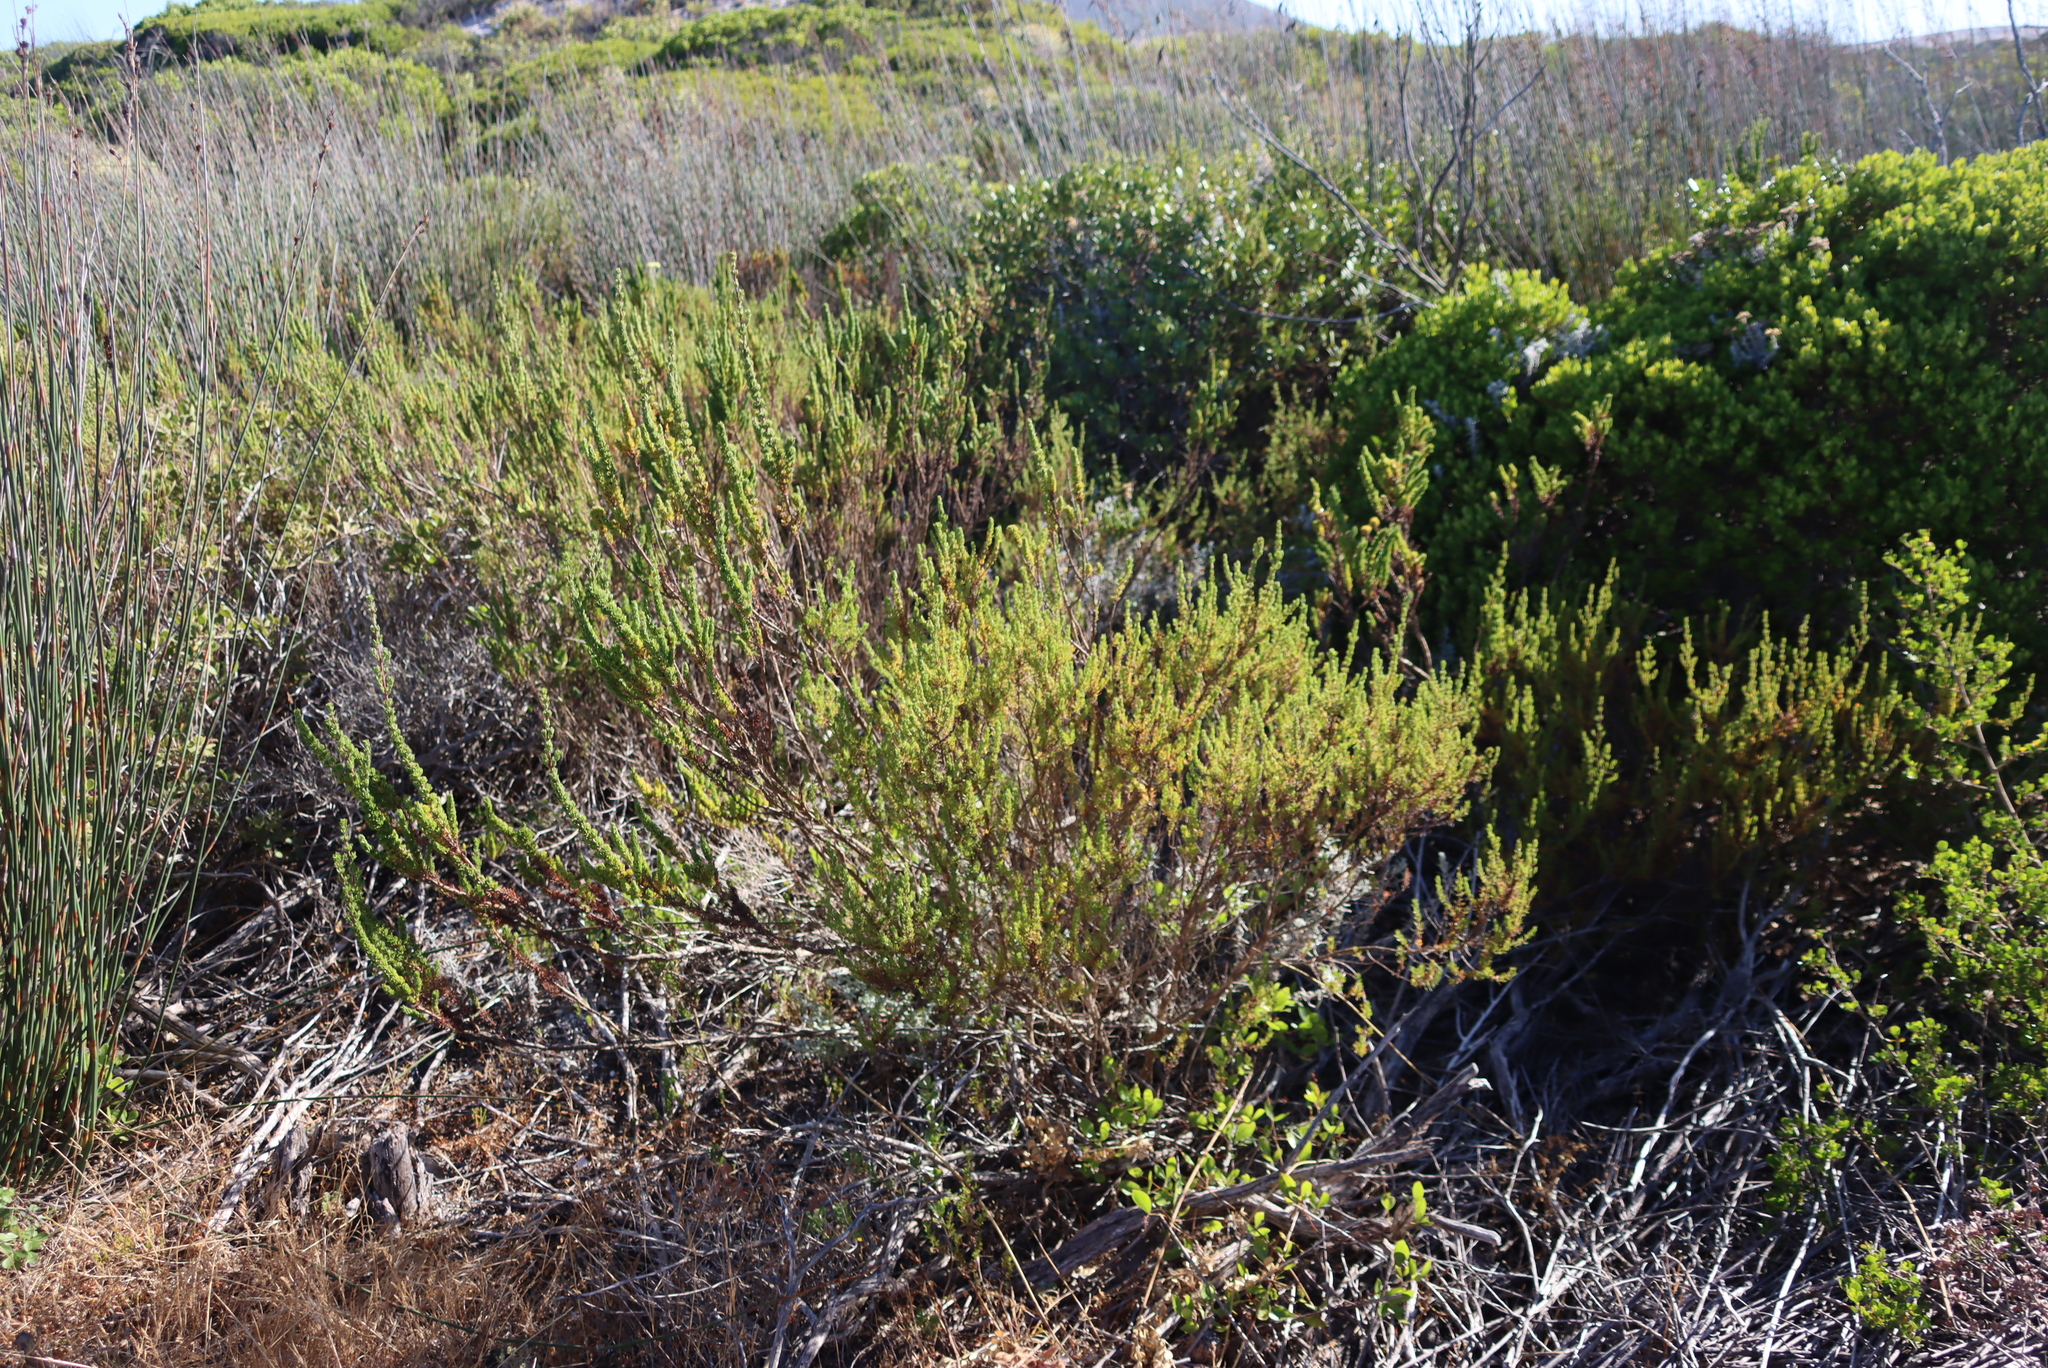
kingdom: Plantae
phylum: Tracheophyta
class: Magnoliopsida
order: Gentianales
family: Rubiaceae
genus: Anthospermum
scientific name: Anthospermum spathulatum
